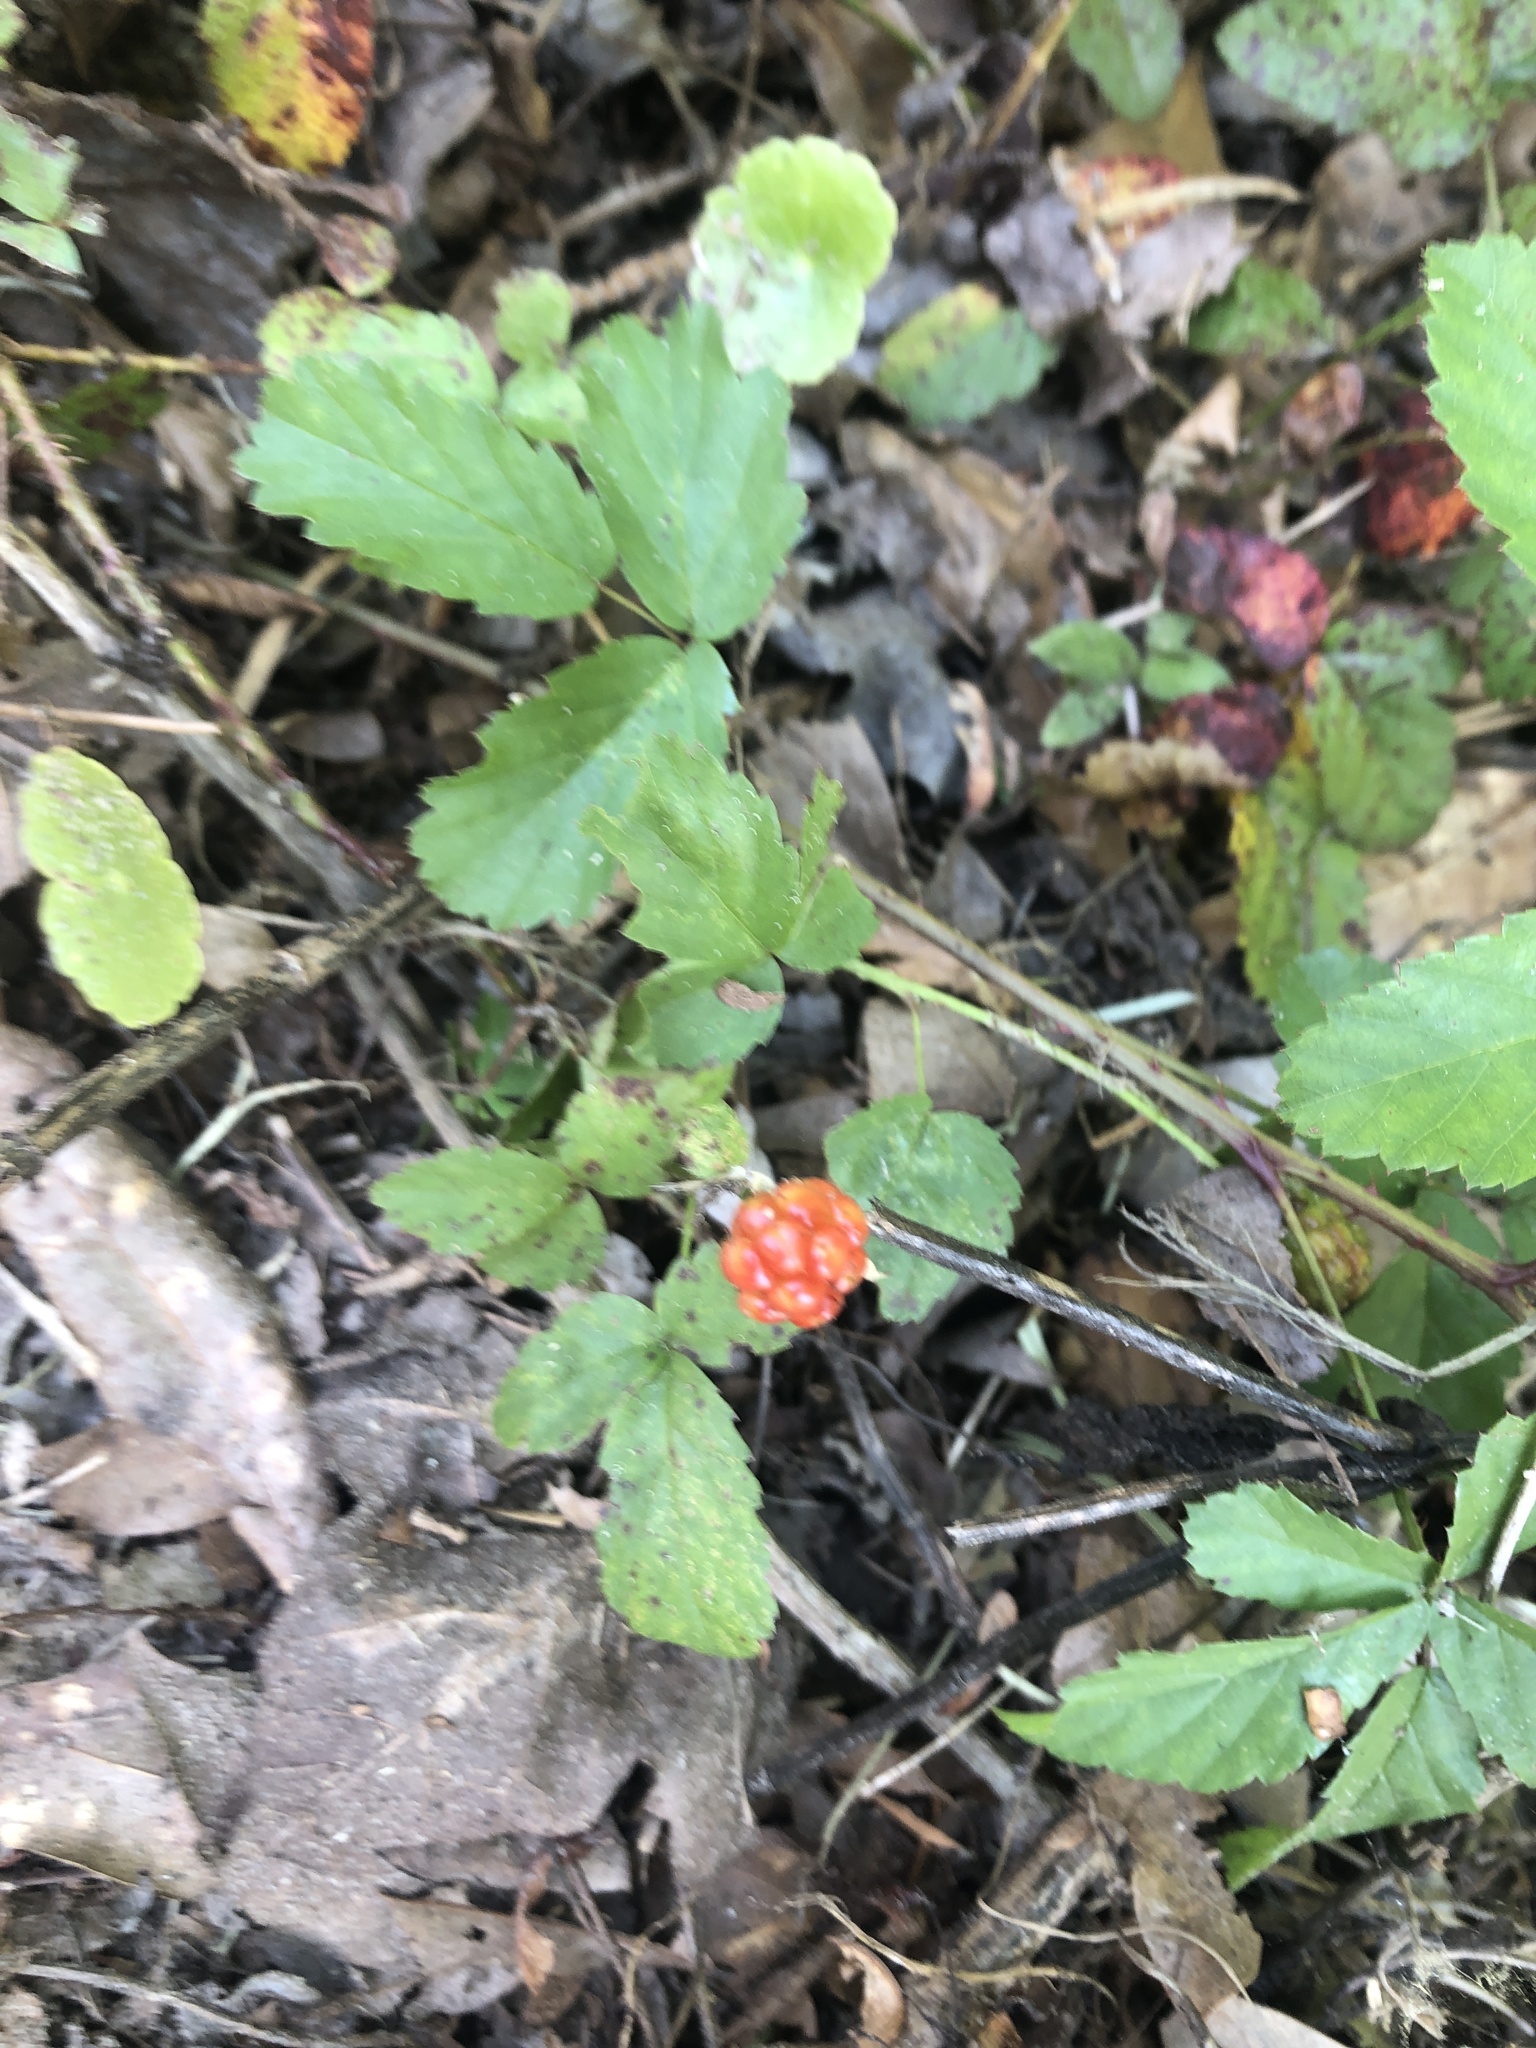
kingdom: Plantae
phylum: Tracheophyta
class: Magnoliopsida
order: Rosales
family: Rosaceae
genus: Rubus
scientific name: Rubus trivialis
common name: Southern dewberry
